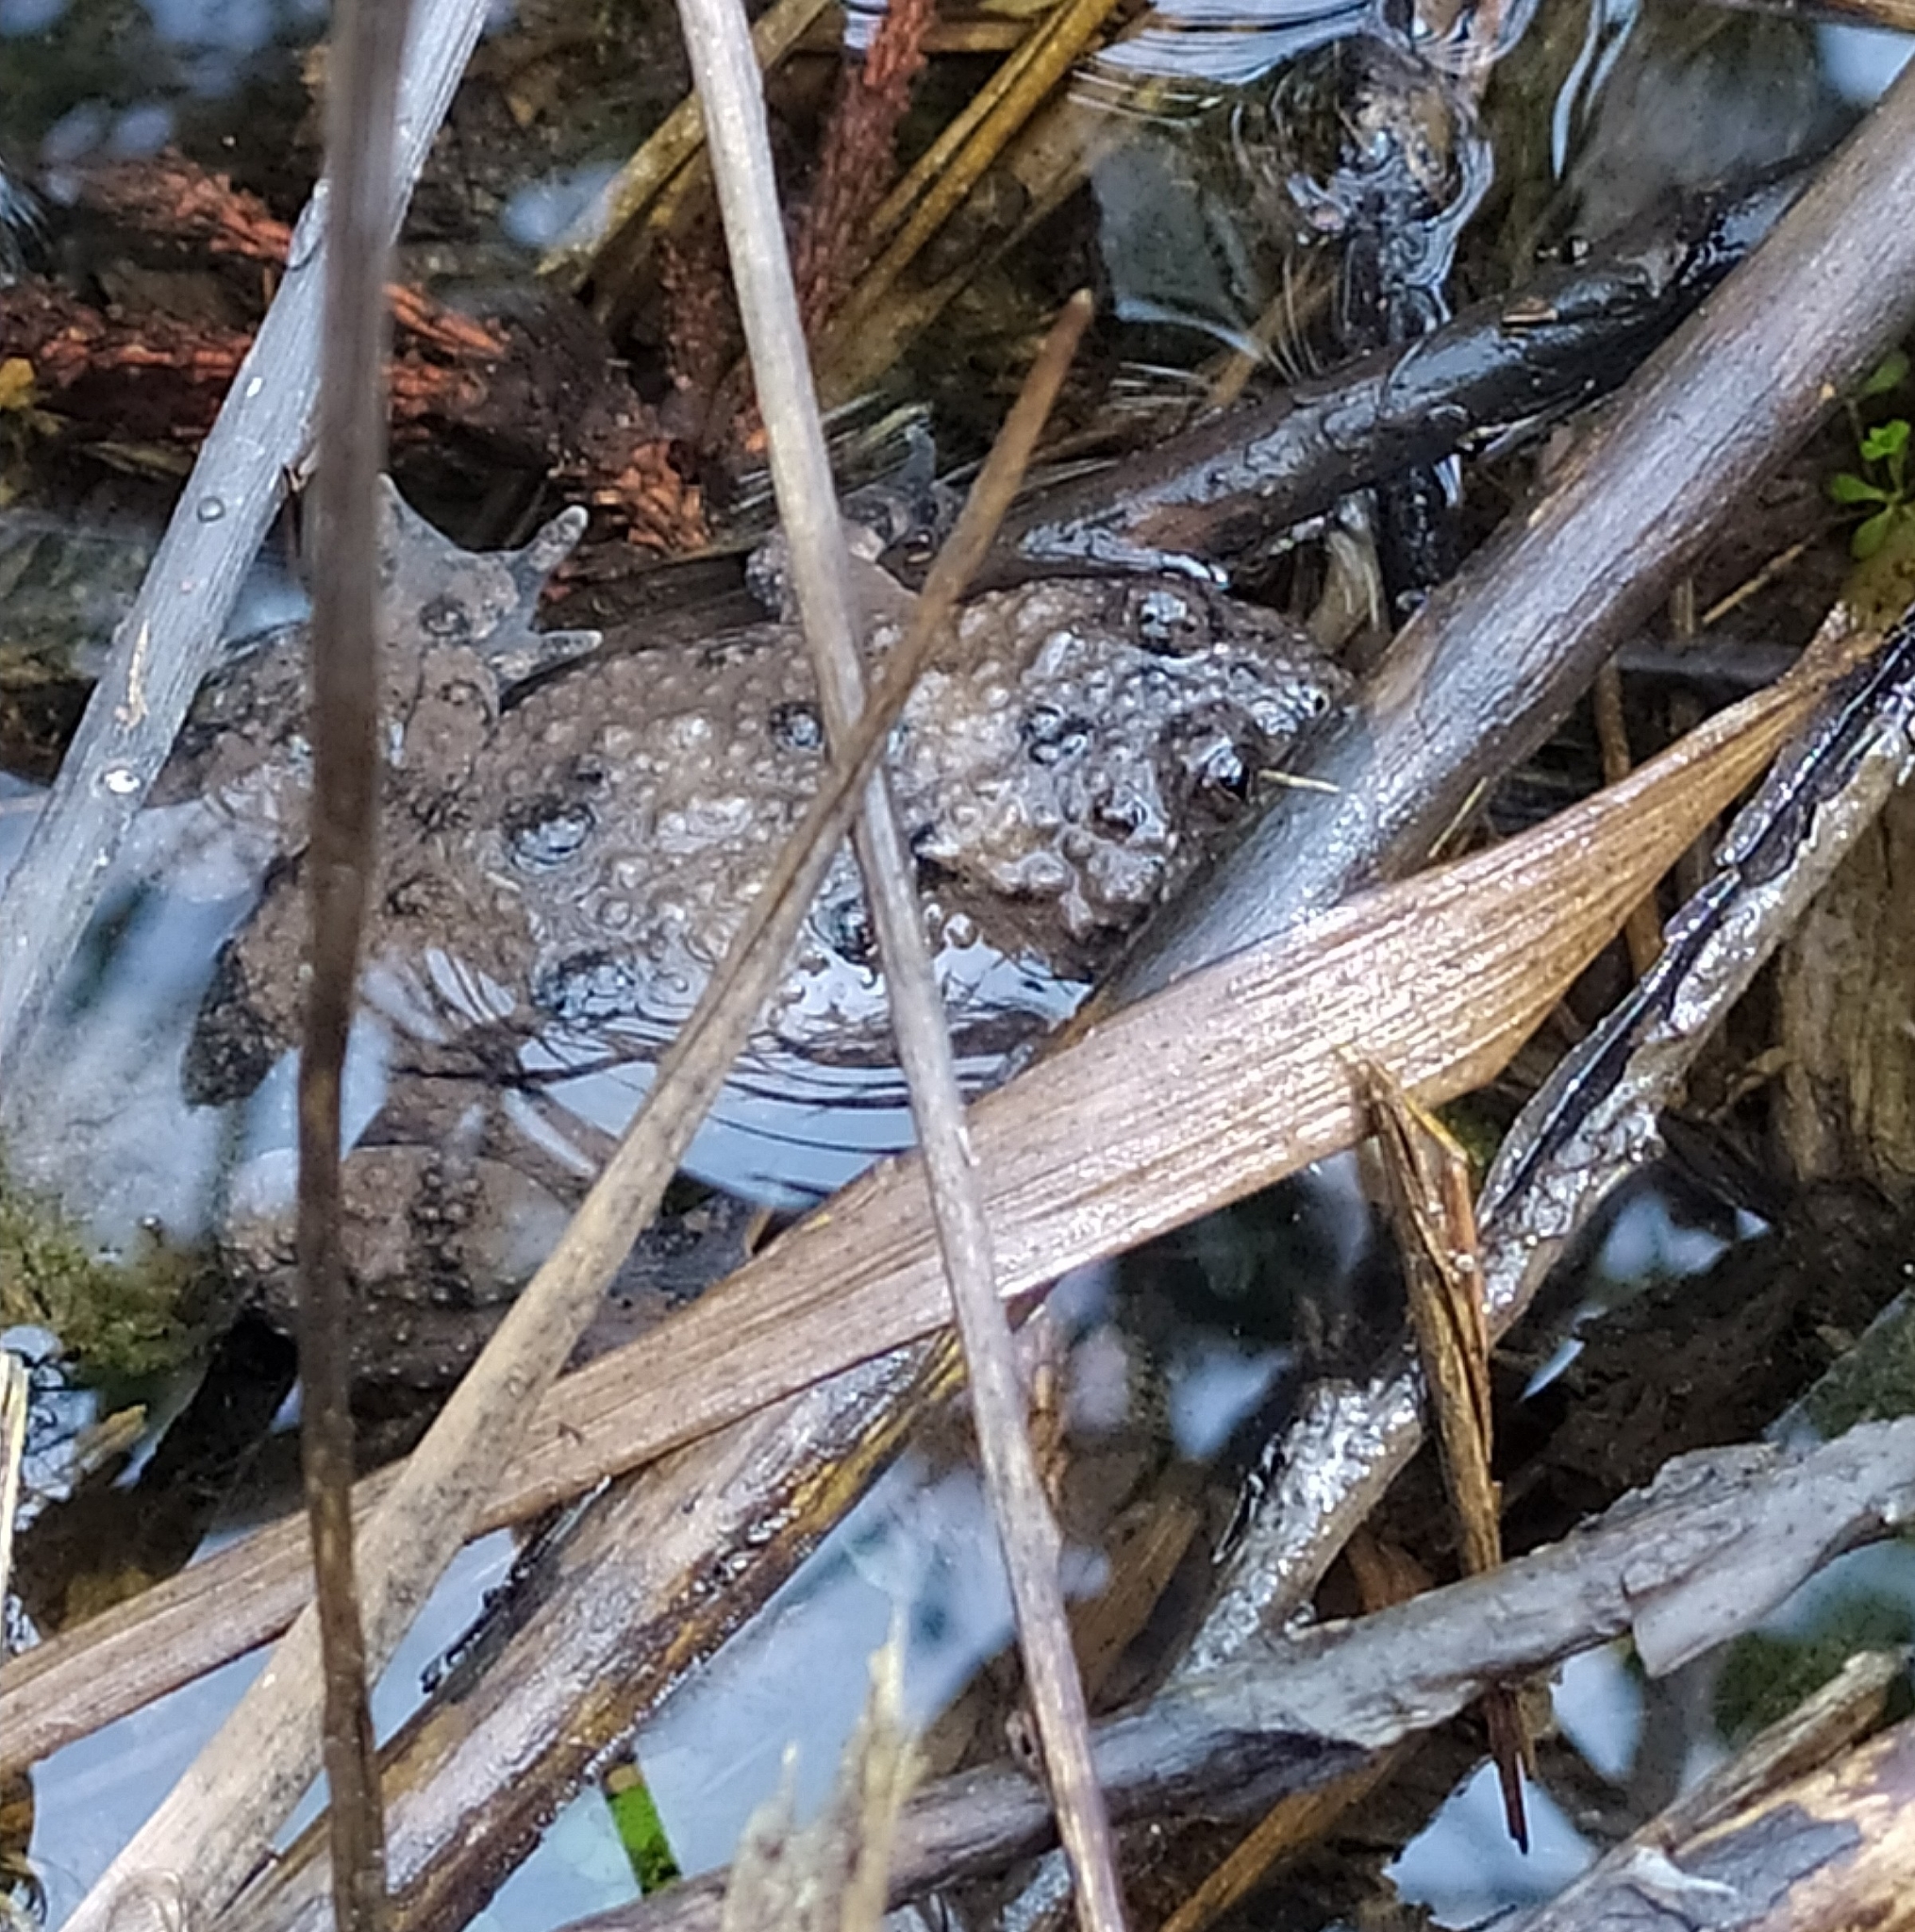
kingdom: Animalia
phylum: Chordata
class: Amphibia
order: Anura
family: Bombinatoridae
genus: Bombina
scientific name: Bombina variegata
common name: Yellow-bellied toad
